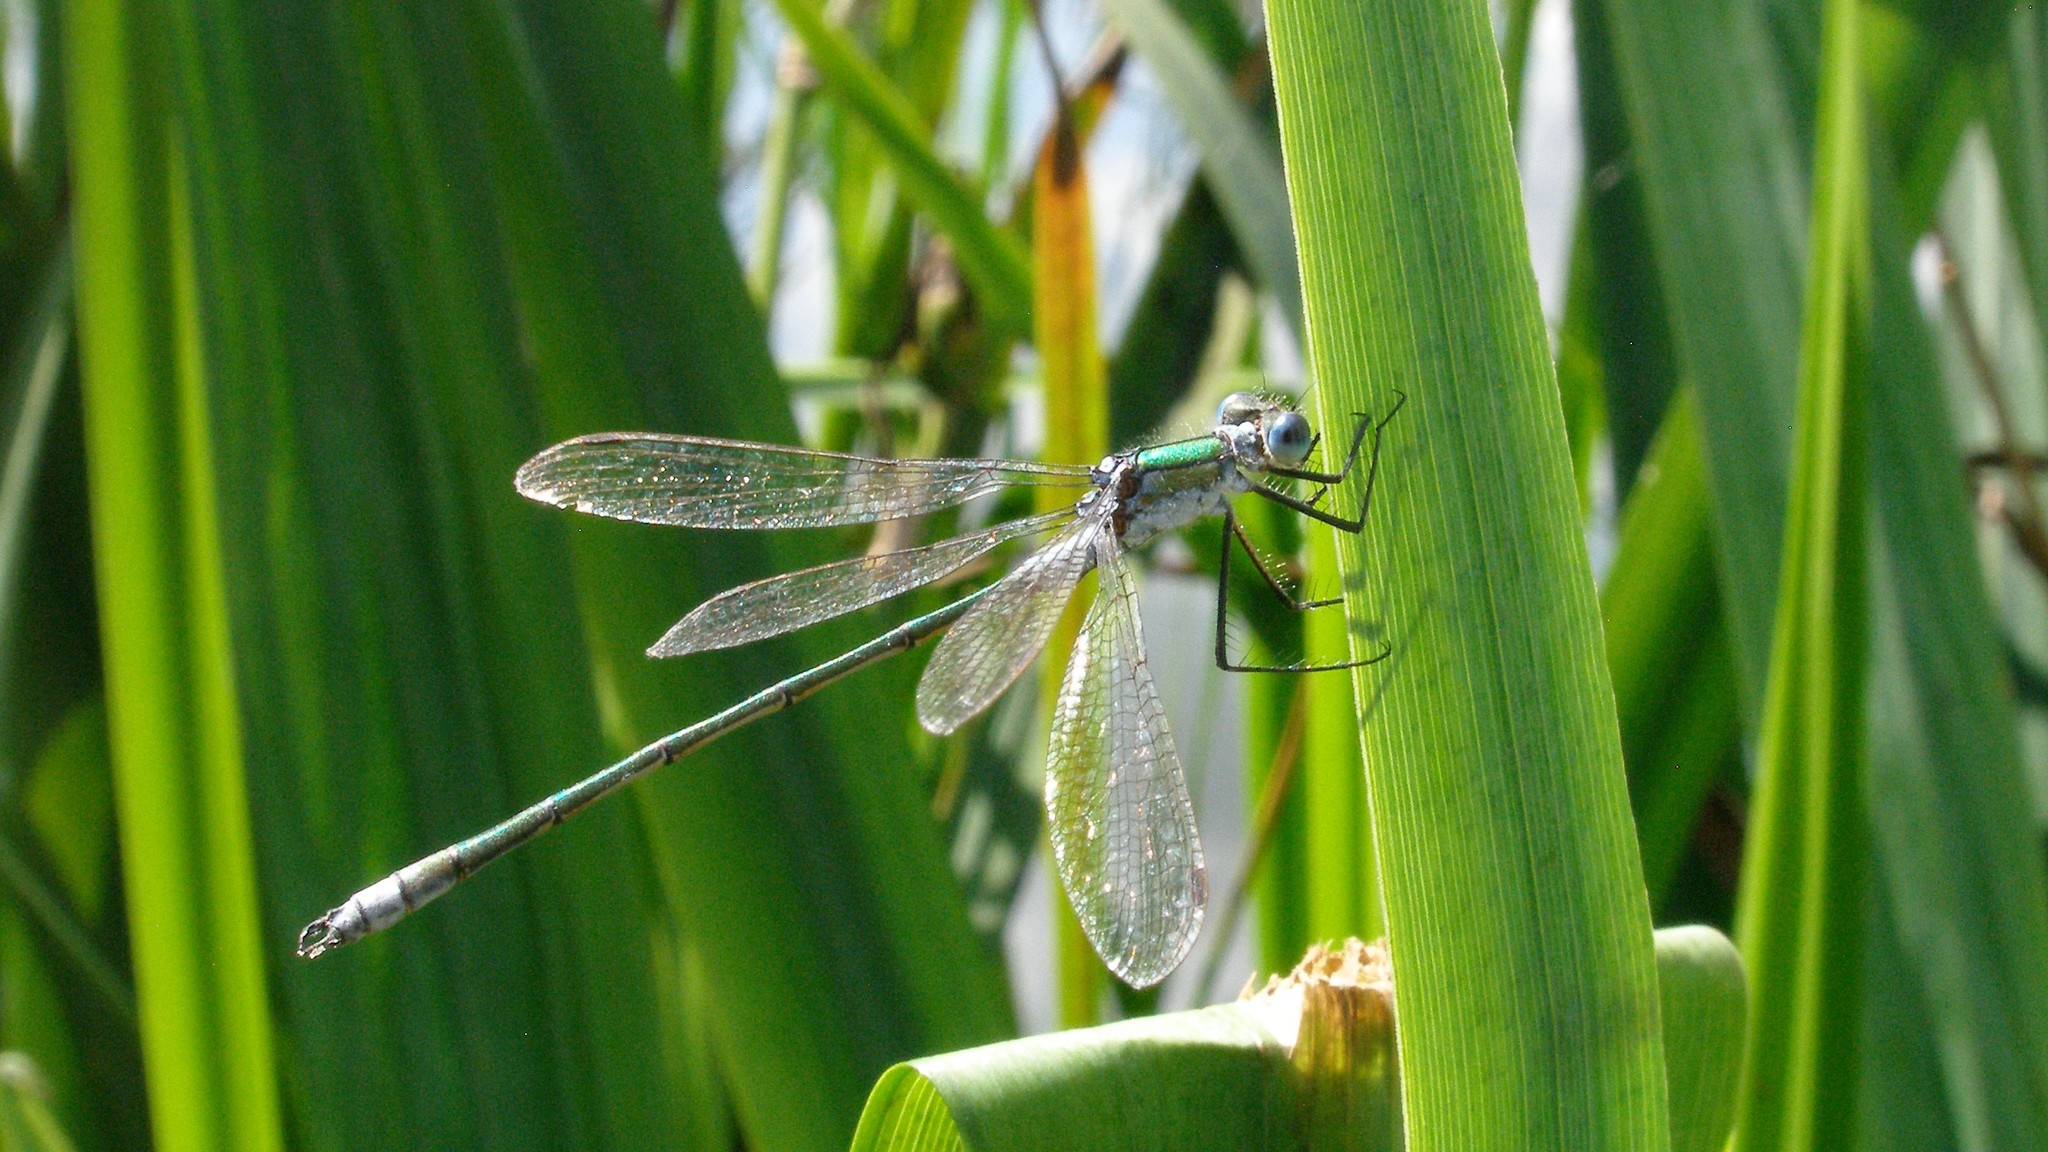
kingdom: Animalia
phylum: Arthropoda
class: Insecta
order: Odonata
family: Lestidae
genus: Lestes
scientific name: Lestes sponsa
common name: Common spreadwing
